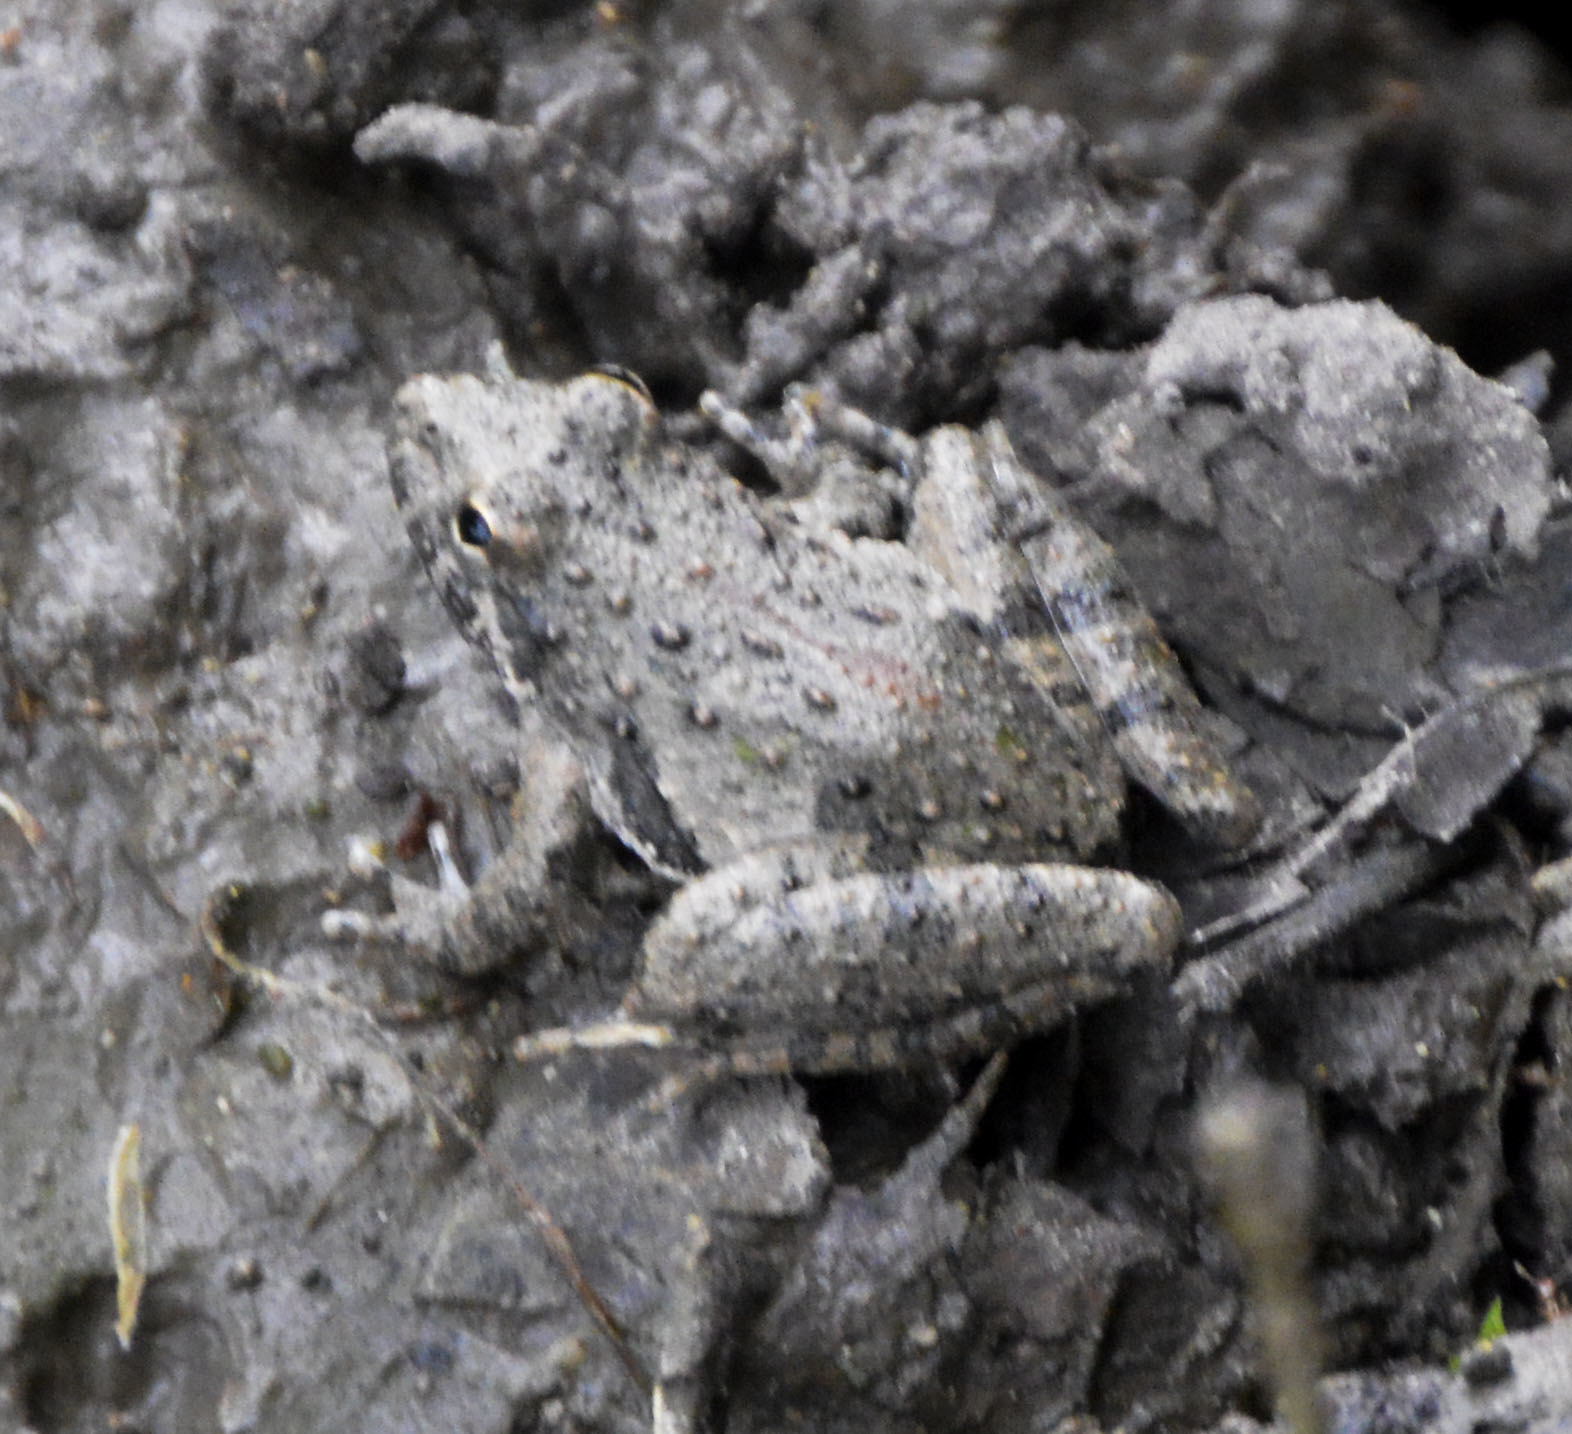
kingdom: Animalia
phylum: Chordata
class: Amphibia
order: Anura
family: Hylidae
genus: Acris
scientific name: Acris blanchardi
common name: Blanchard's cricket frog
